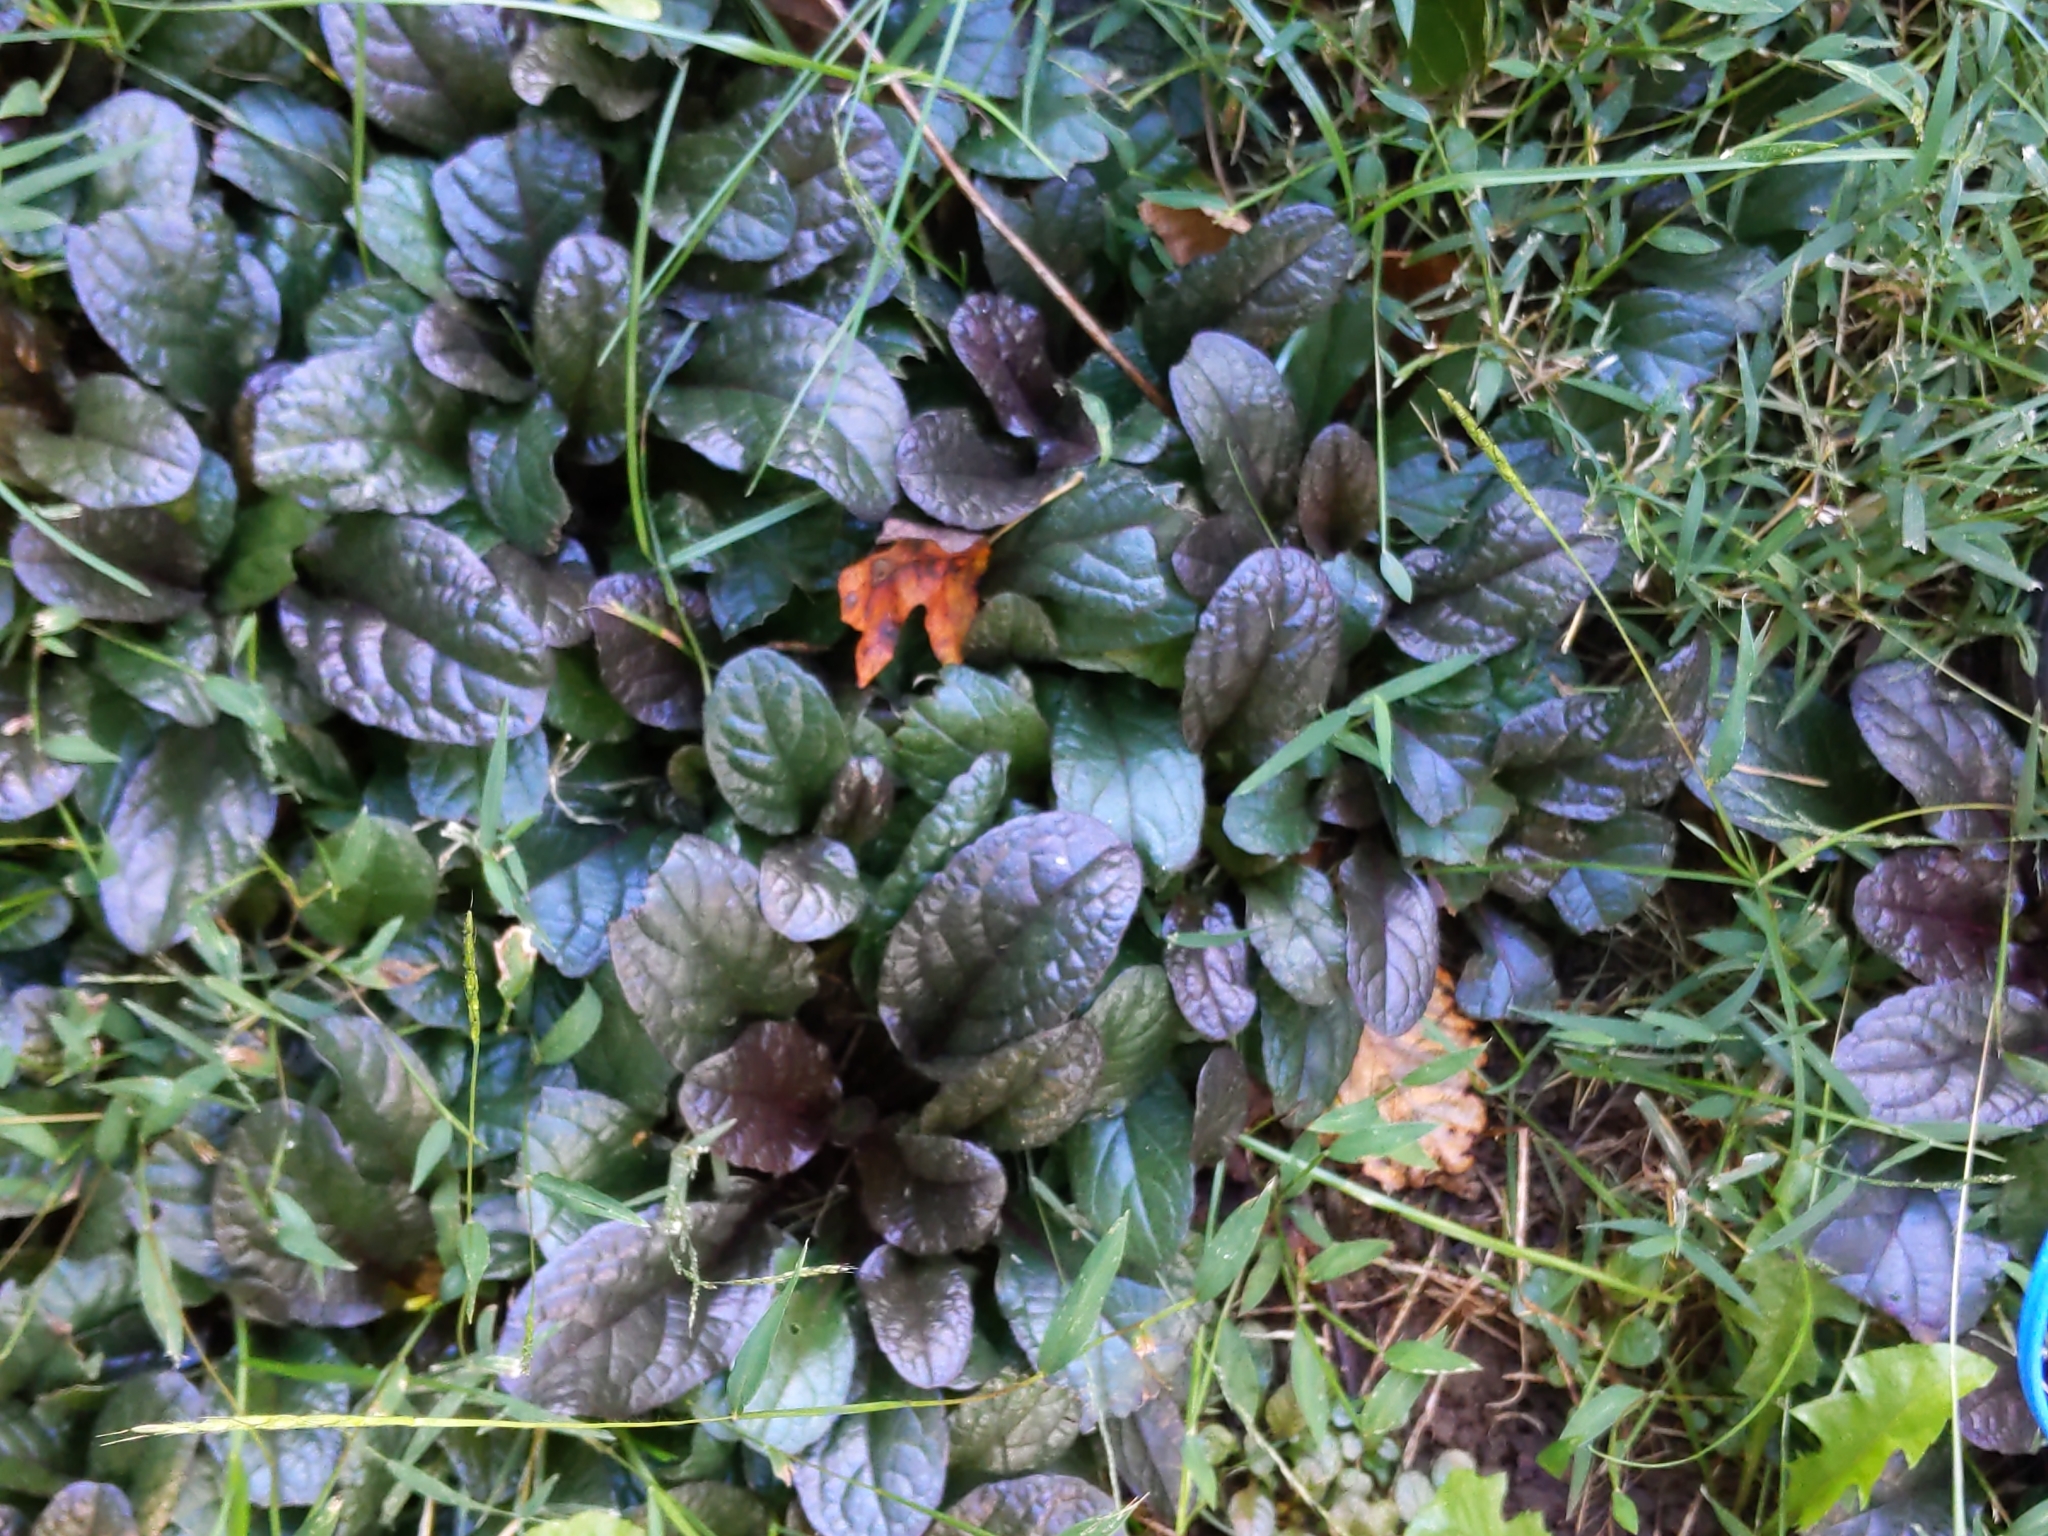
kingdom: Plantae
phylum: Tracheophyta
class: Magnoliopsida
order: Lamiales
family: Lamiaceae
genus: Ajuga
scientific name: Ajuga reptans
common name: Bugle
